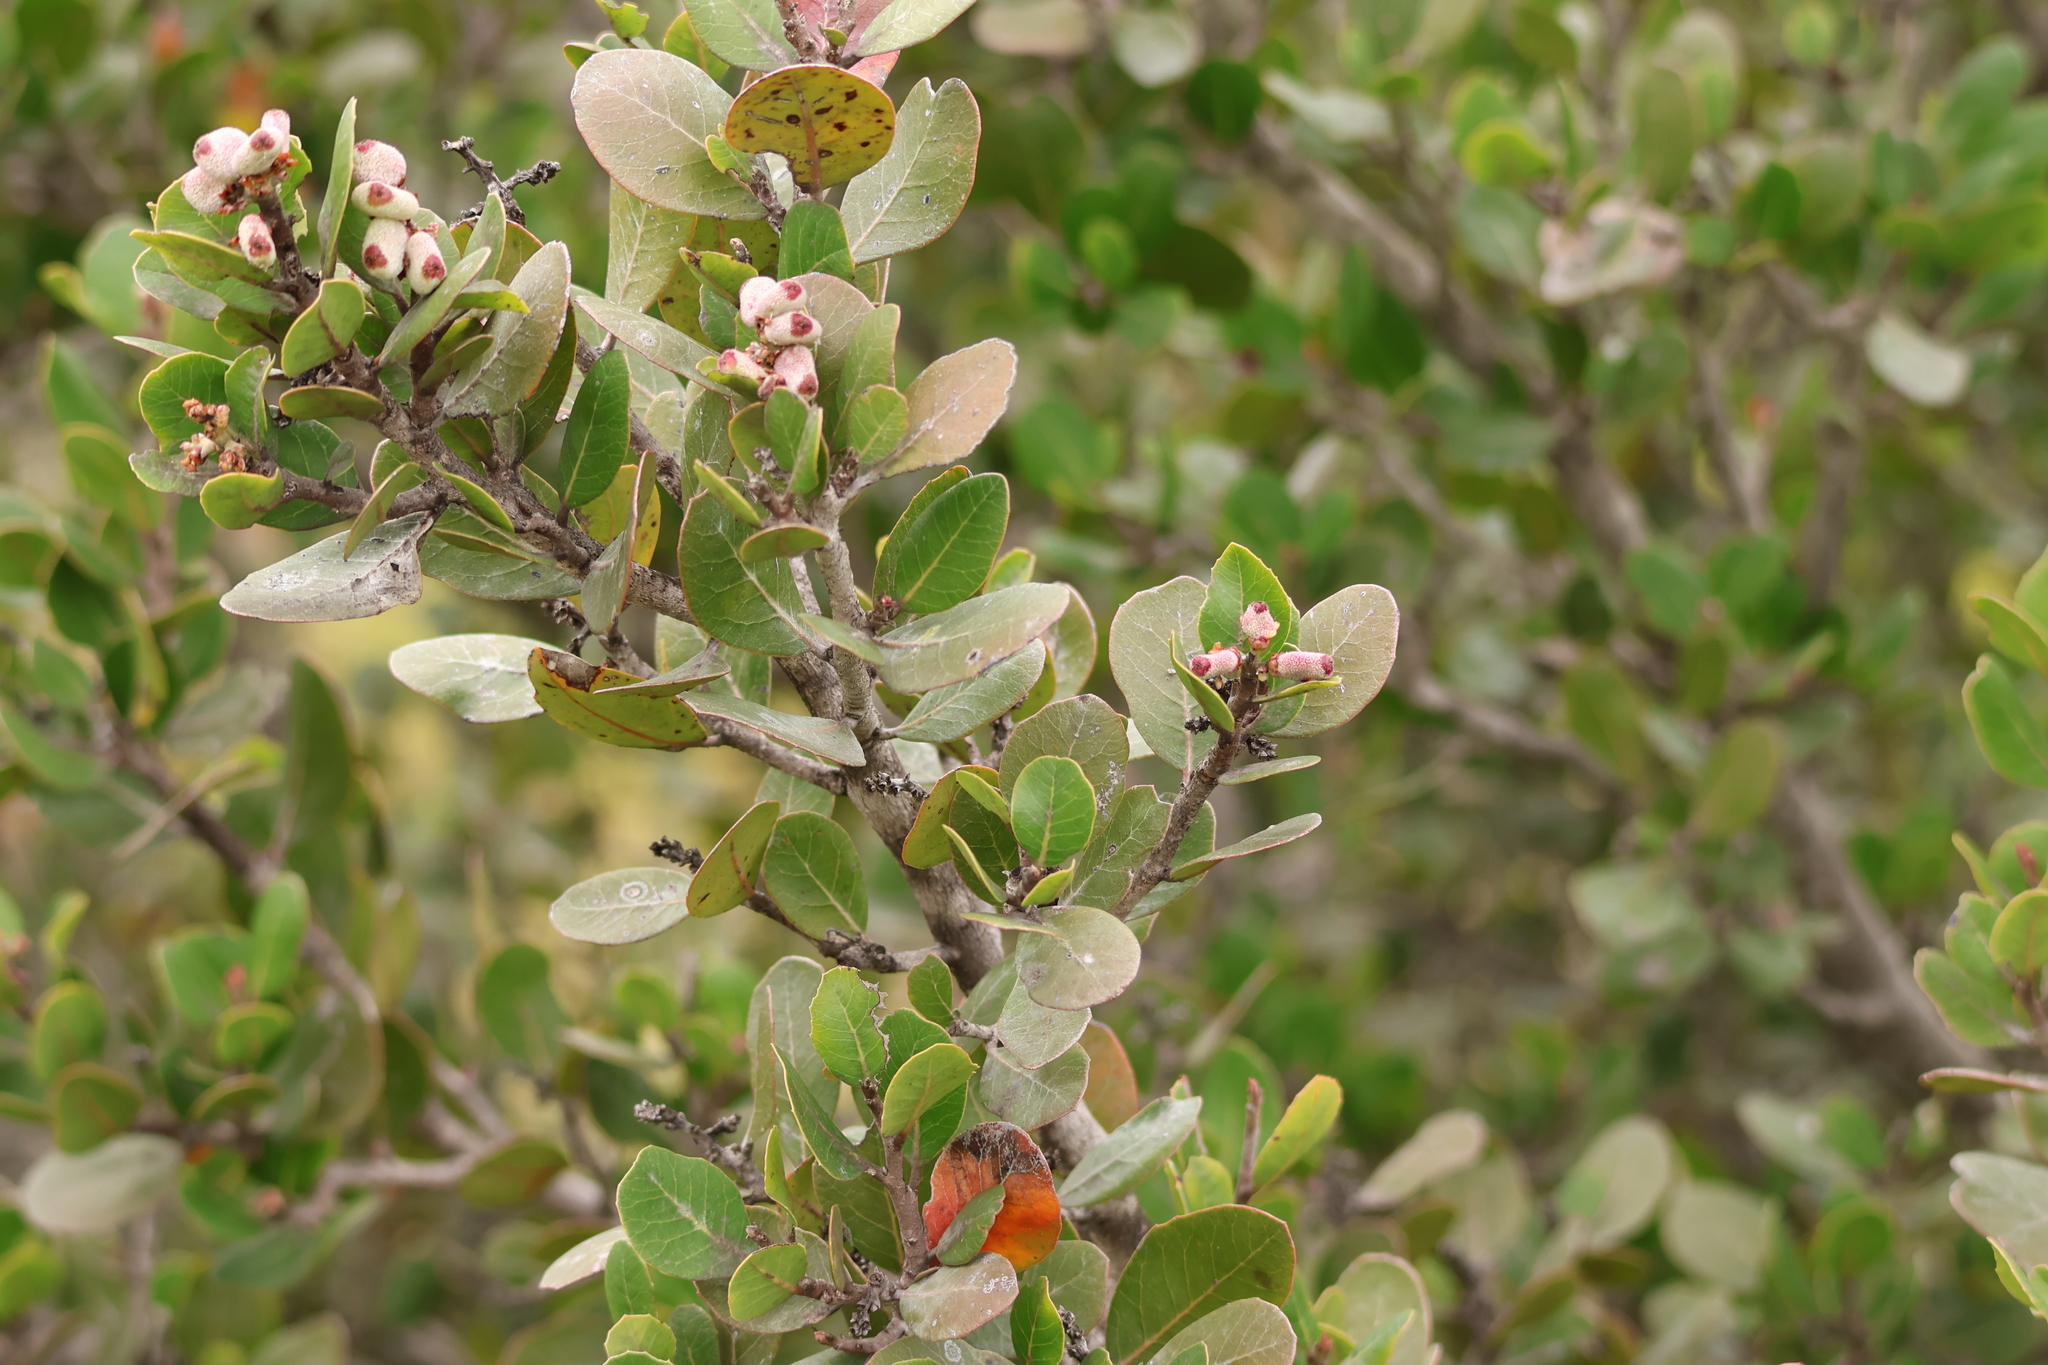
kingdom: Plantae
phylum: Tracheophyta
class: Magnoliopsida
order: Sapindales
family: Anacardiaceae
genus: Rhus
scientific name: Rhus integrifolia
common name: Lemonade sumac
